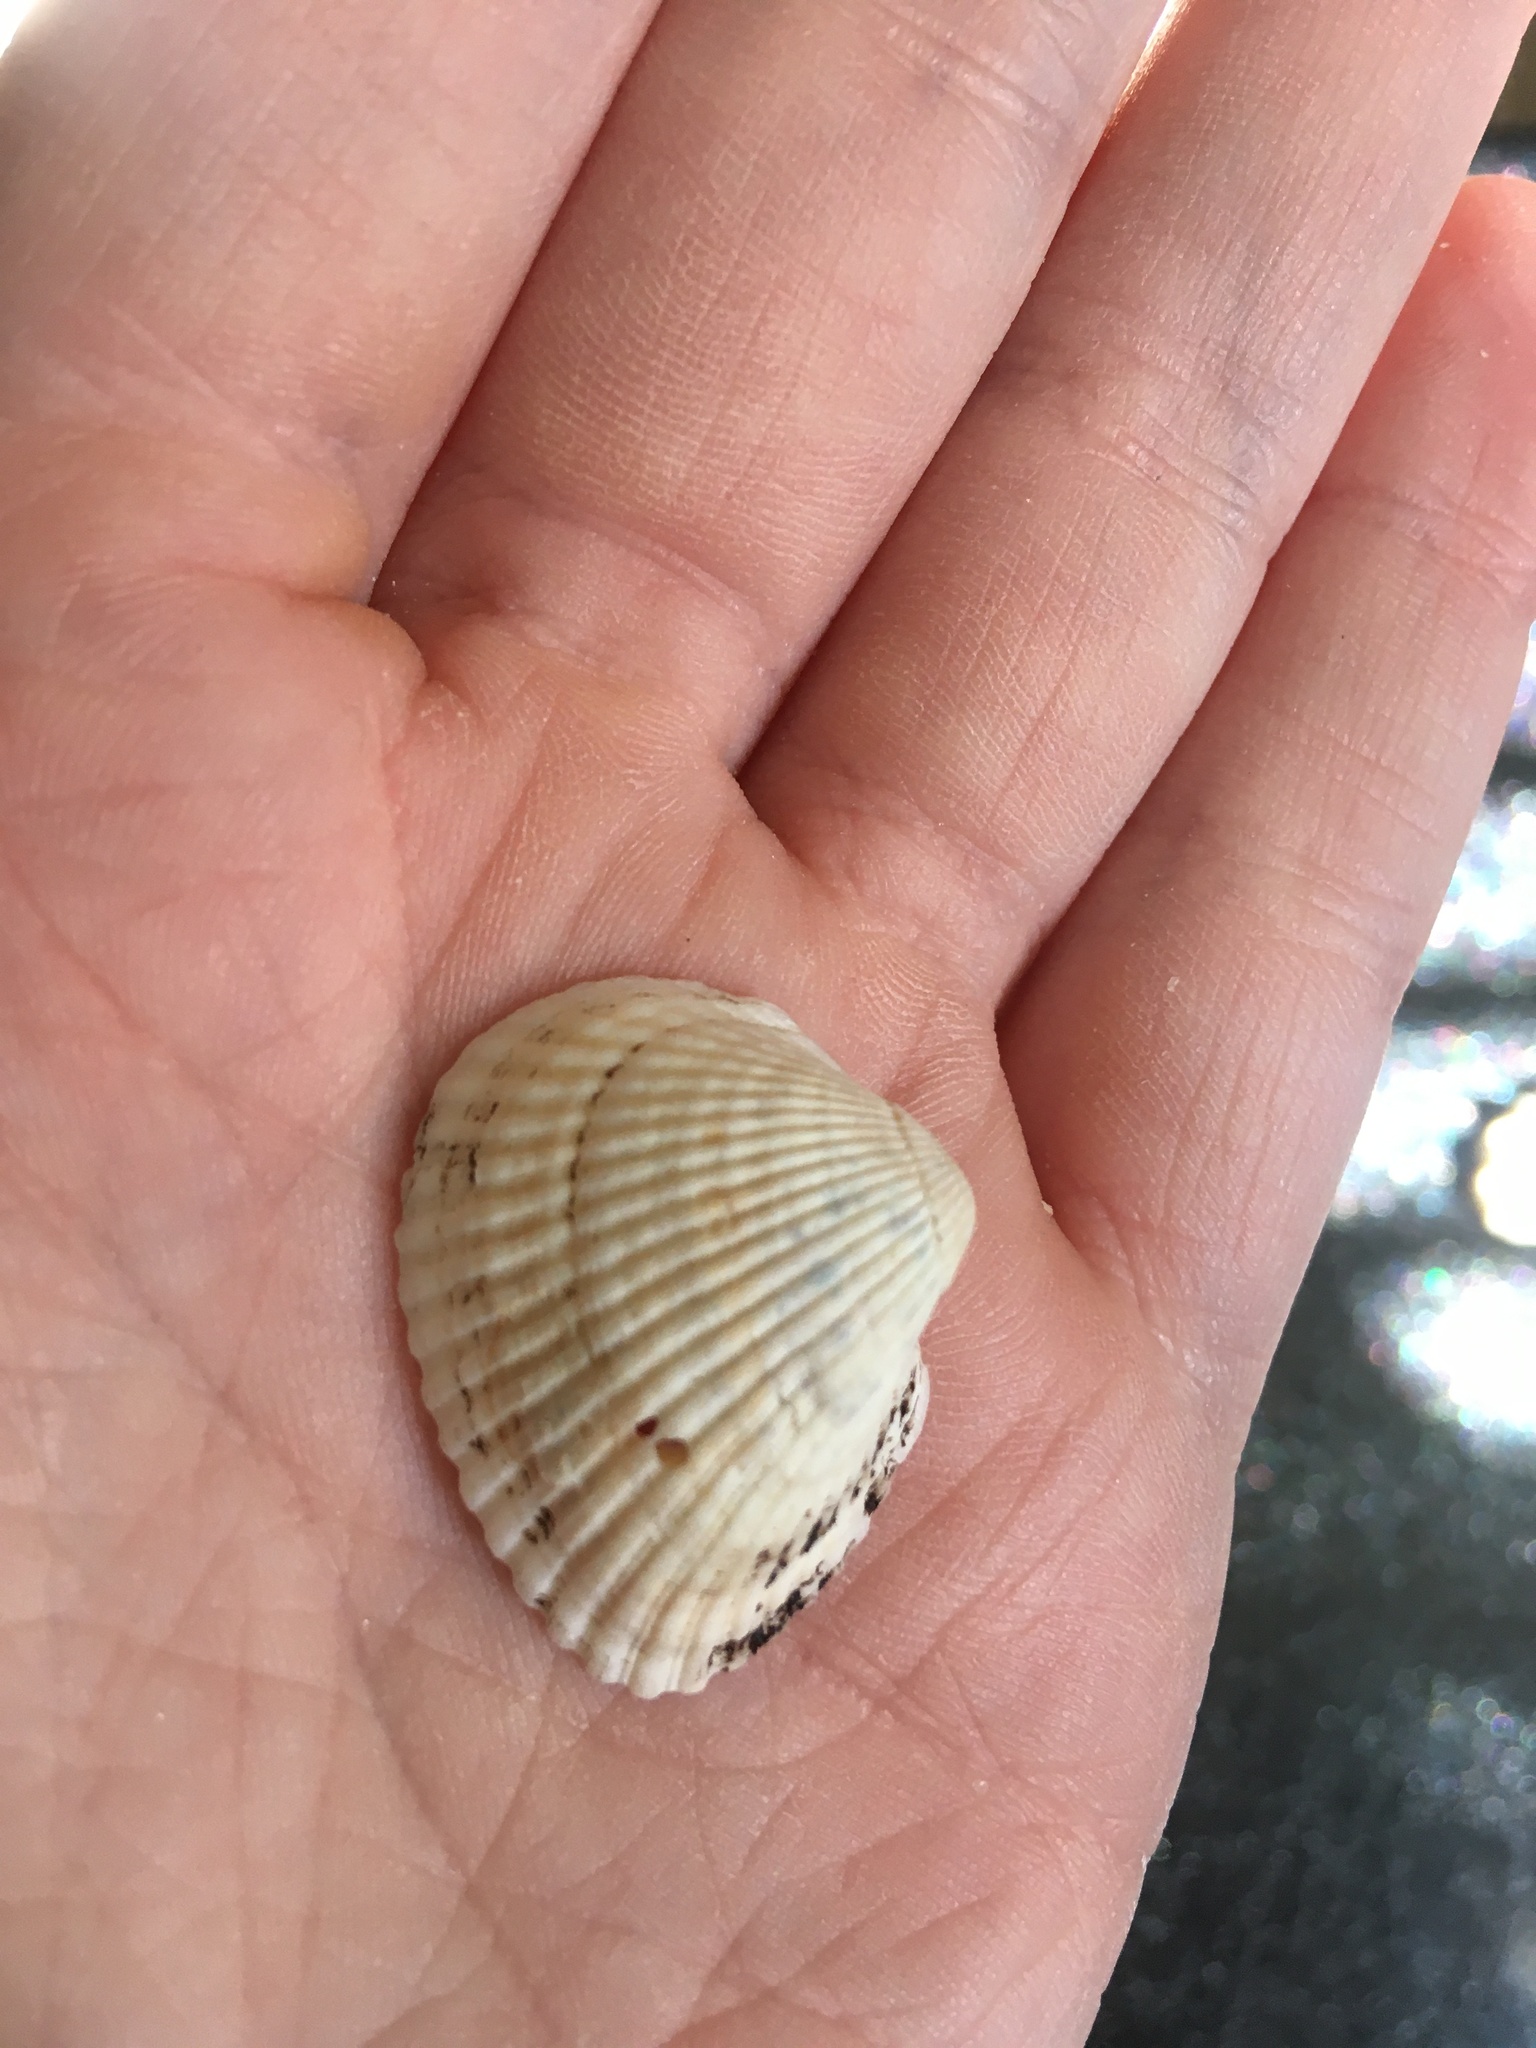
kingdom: Animalia
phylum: Mollusca
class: Bivalvia
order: Arcida
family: Noetiidae
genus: Noetia
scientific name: Noetia ponderosa
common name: Ponderous ark
